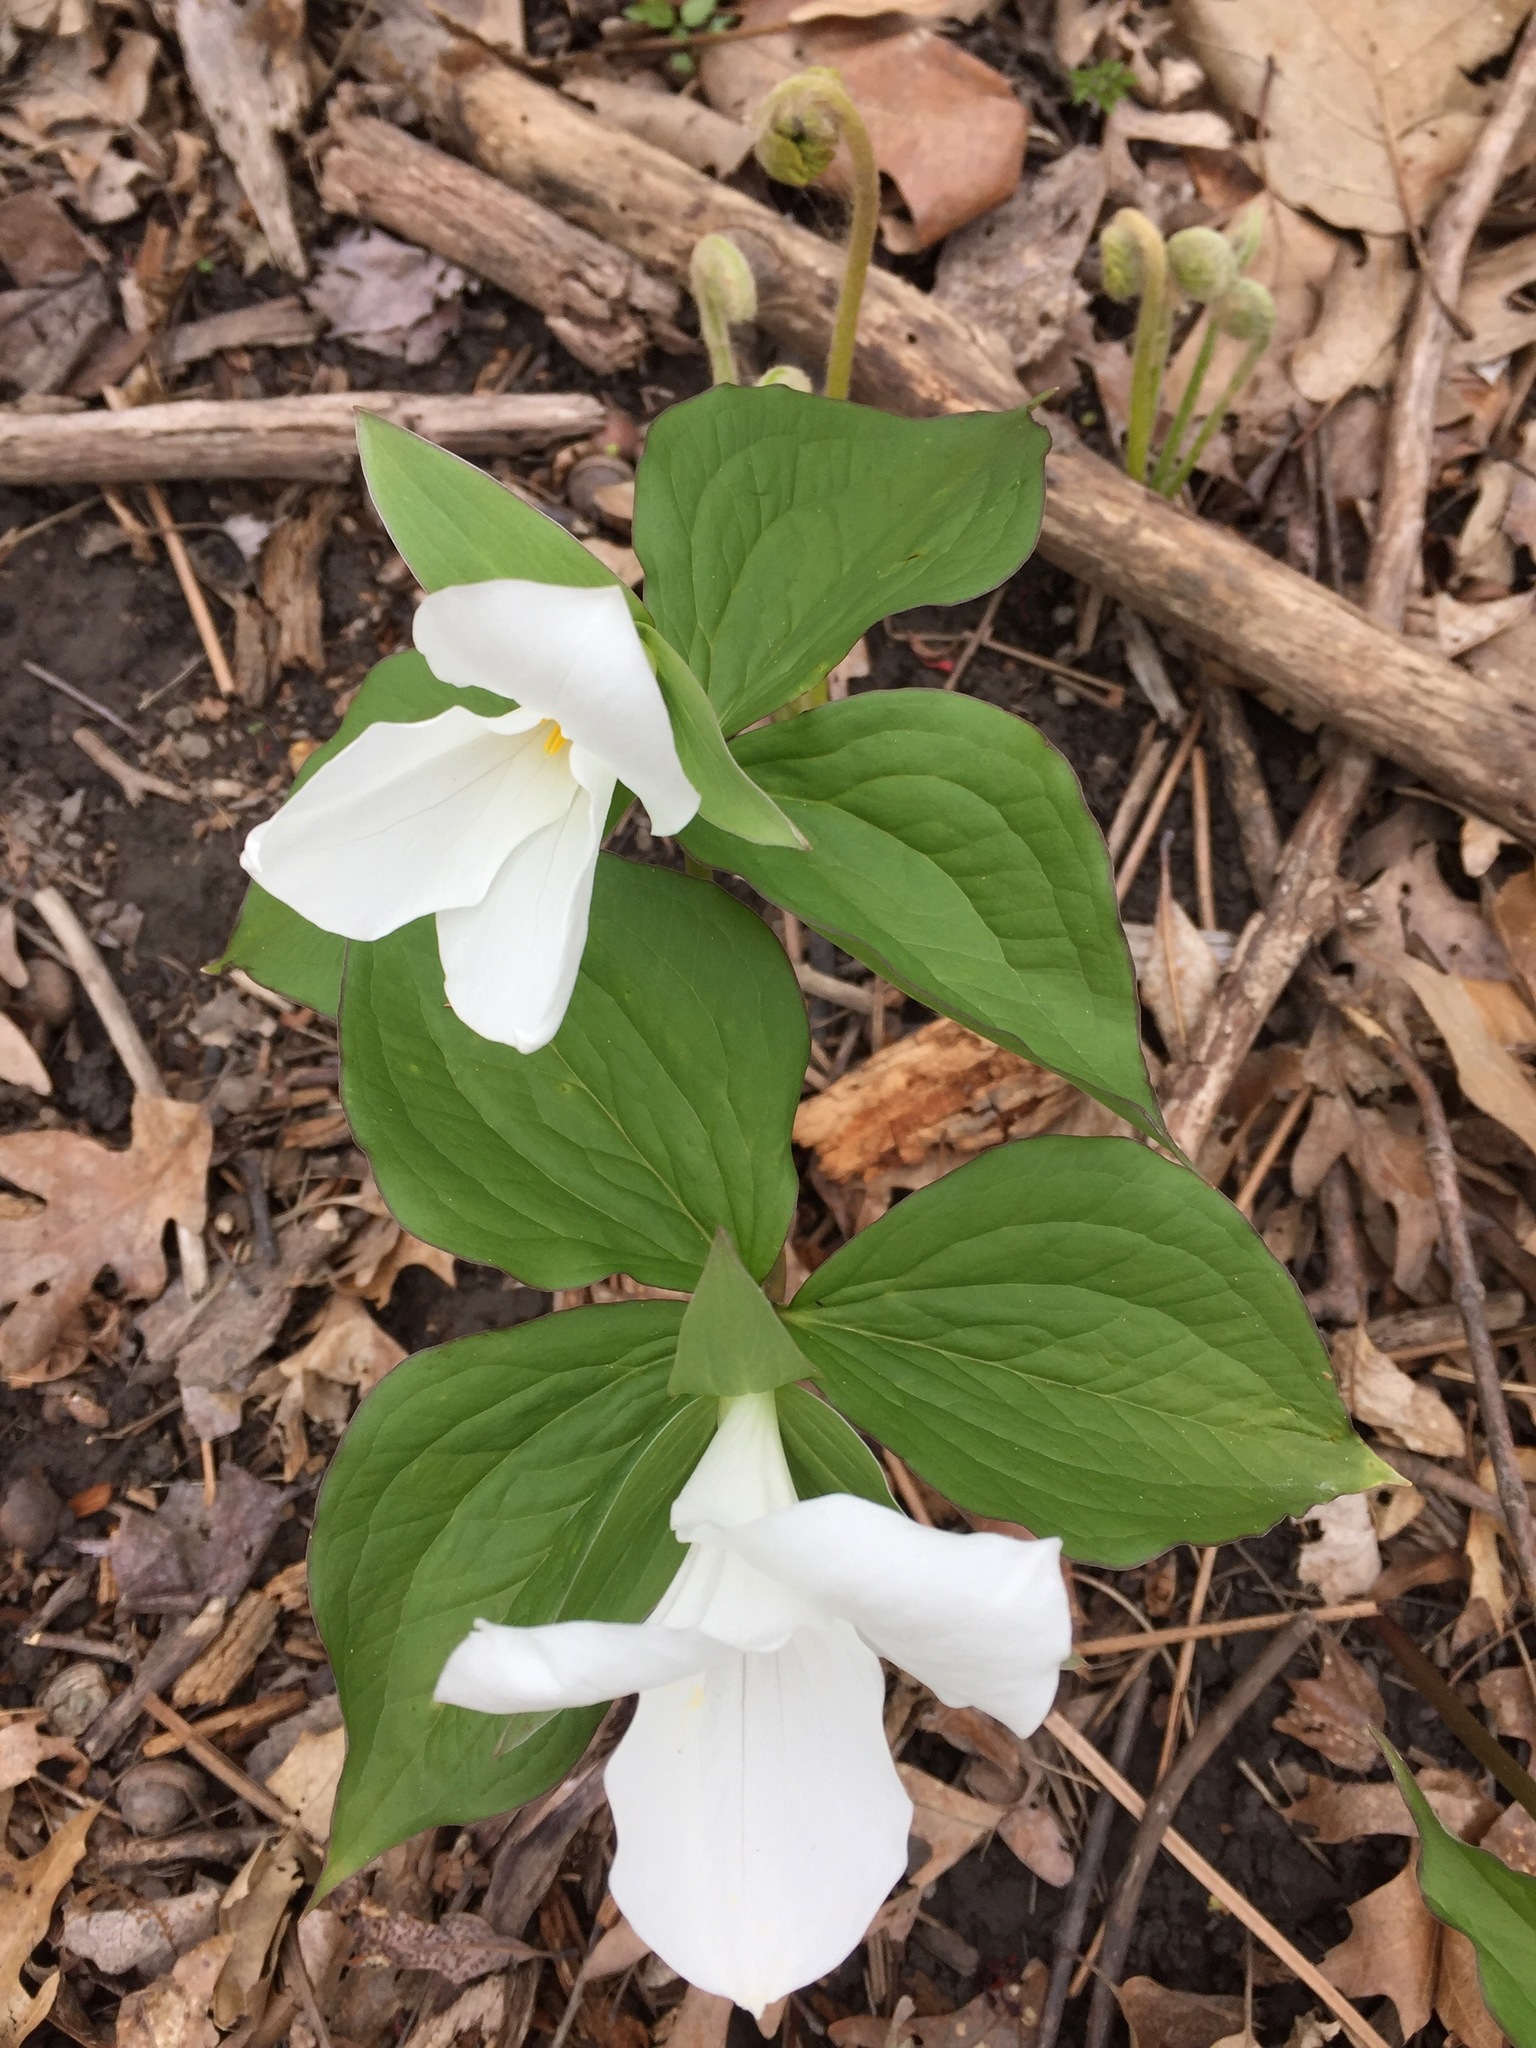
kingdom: Plantae
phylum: Tracheophyta
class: Liliopsida
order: Liliales
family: Melanthiaceae
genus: Trillium
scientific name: Trillium grandiflorum
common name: Great white trillium
